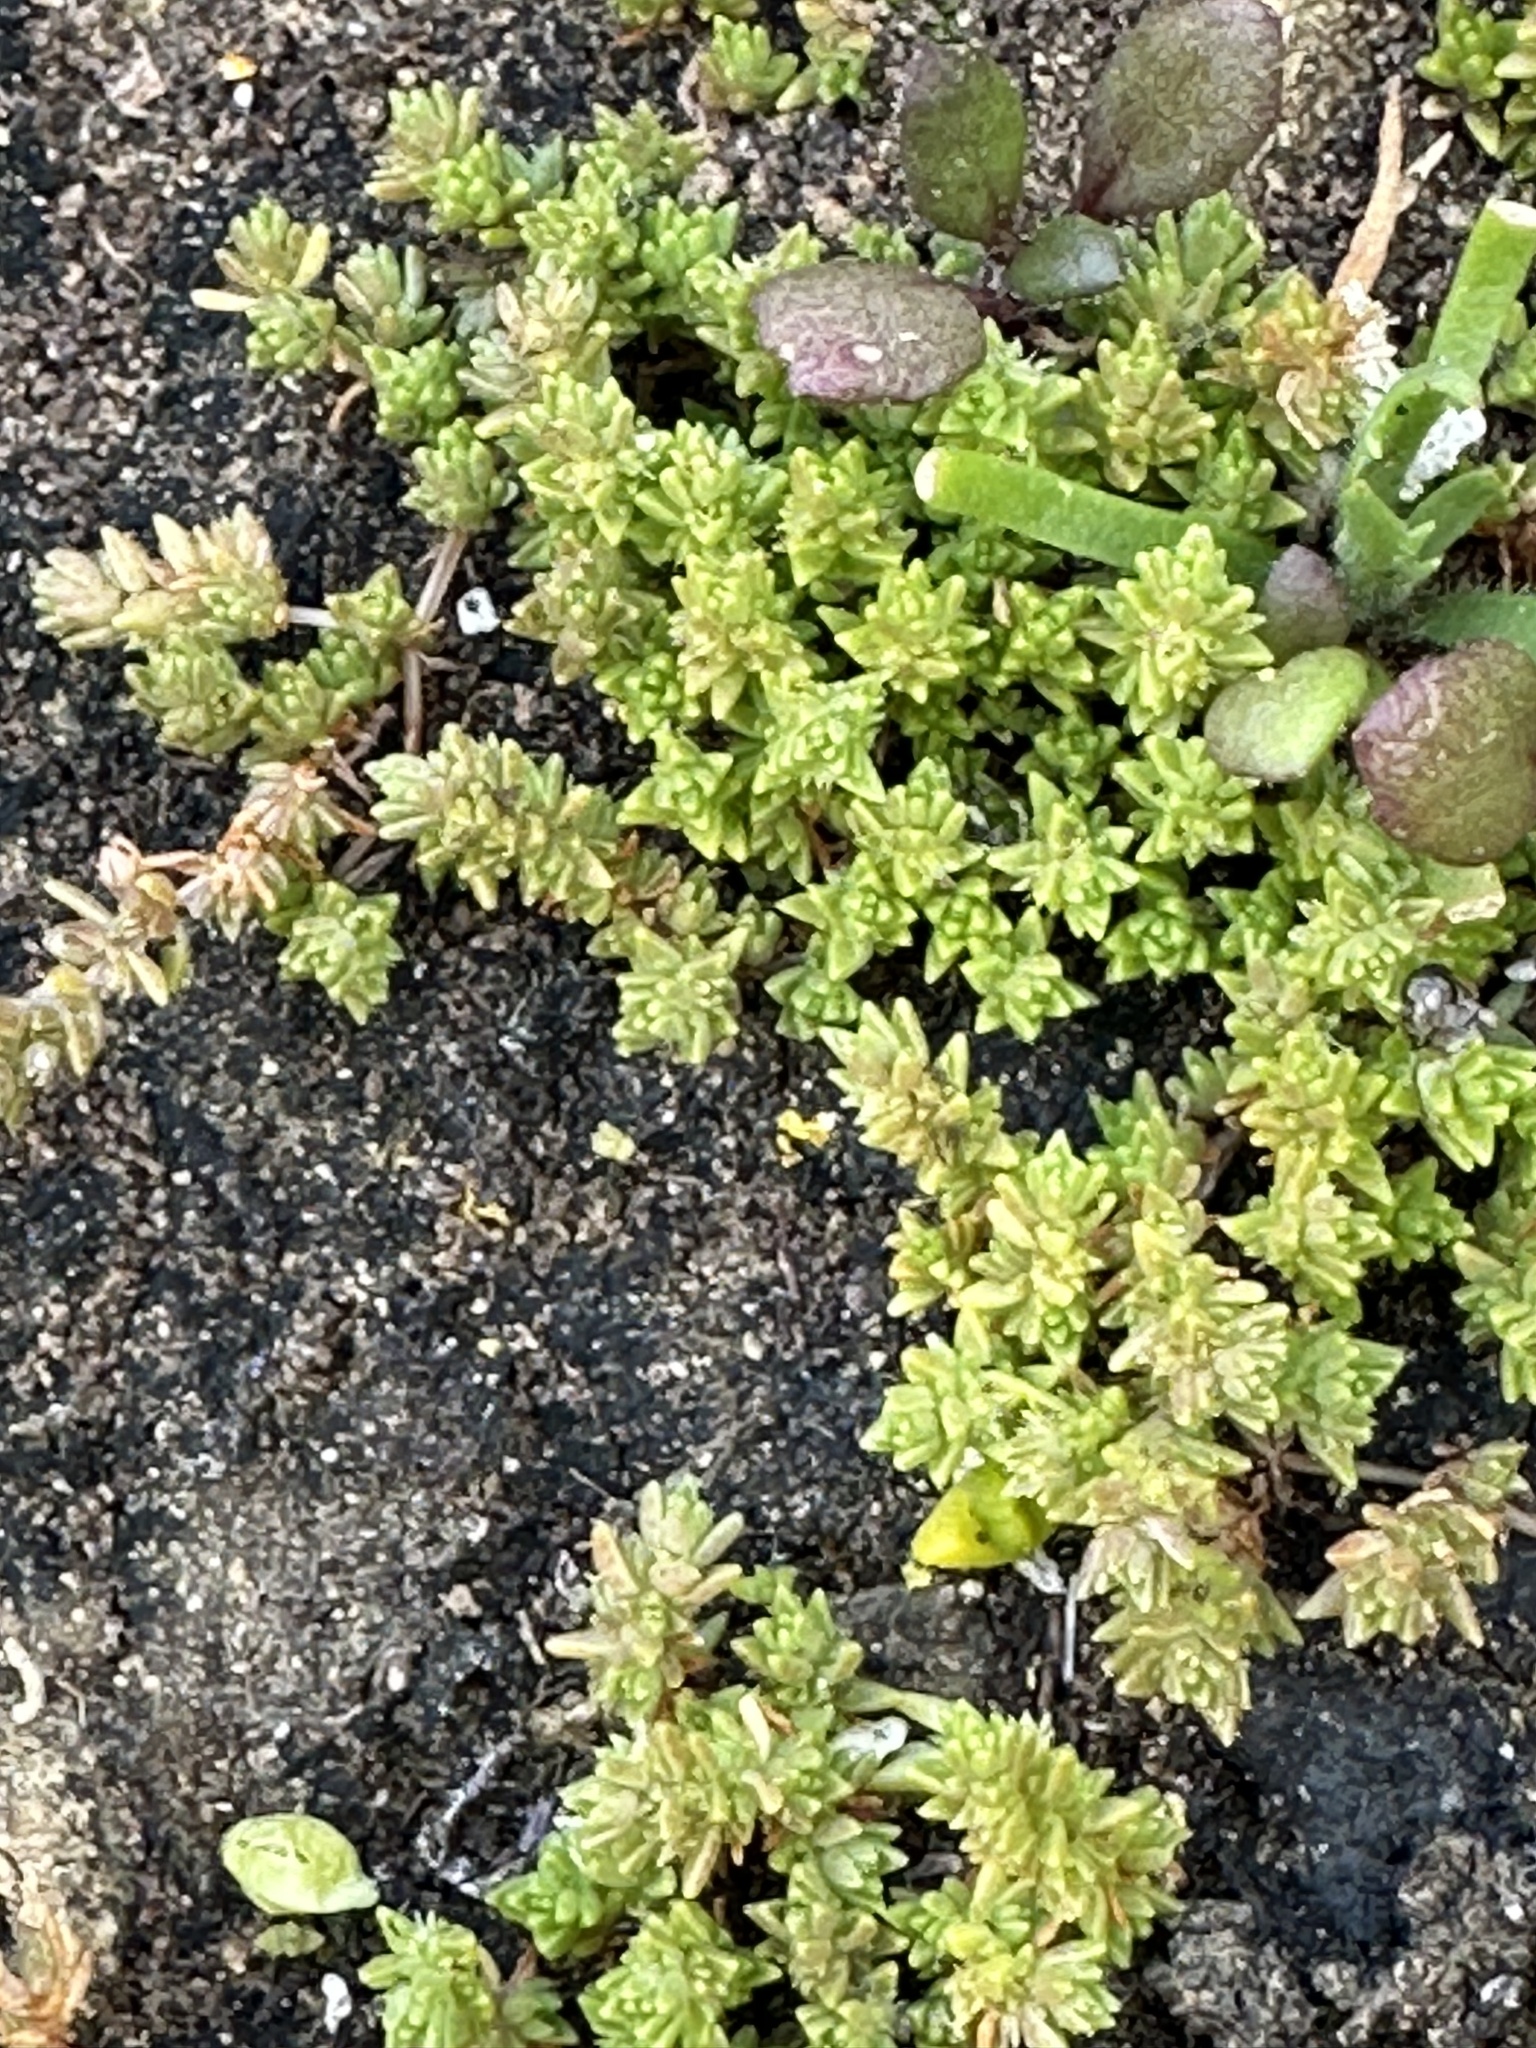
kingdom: Plantae
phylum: Tracheophyta
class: Magnoliopsida
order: Saxifragales
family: Crassulaceae
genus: Crassula
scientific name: Crassula sieberiana
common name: Siberian pygmyweed
